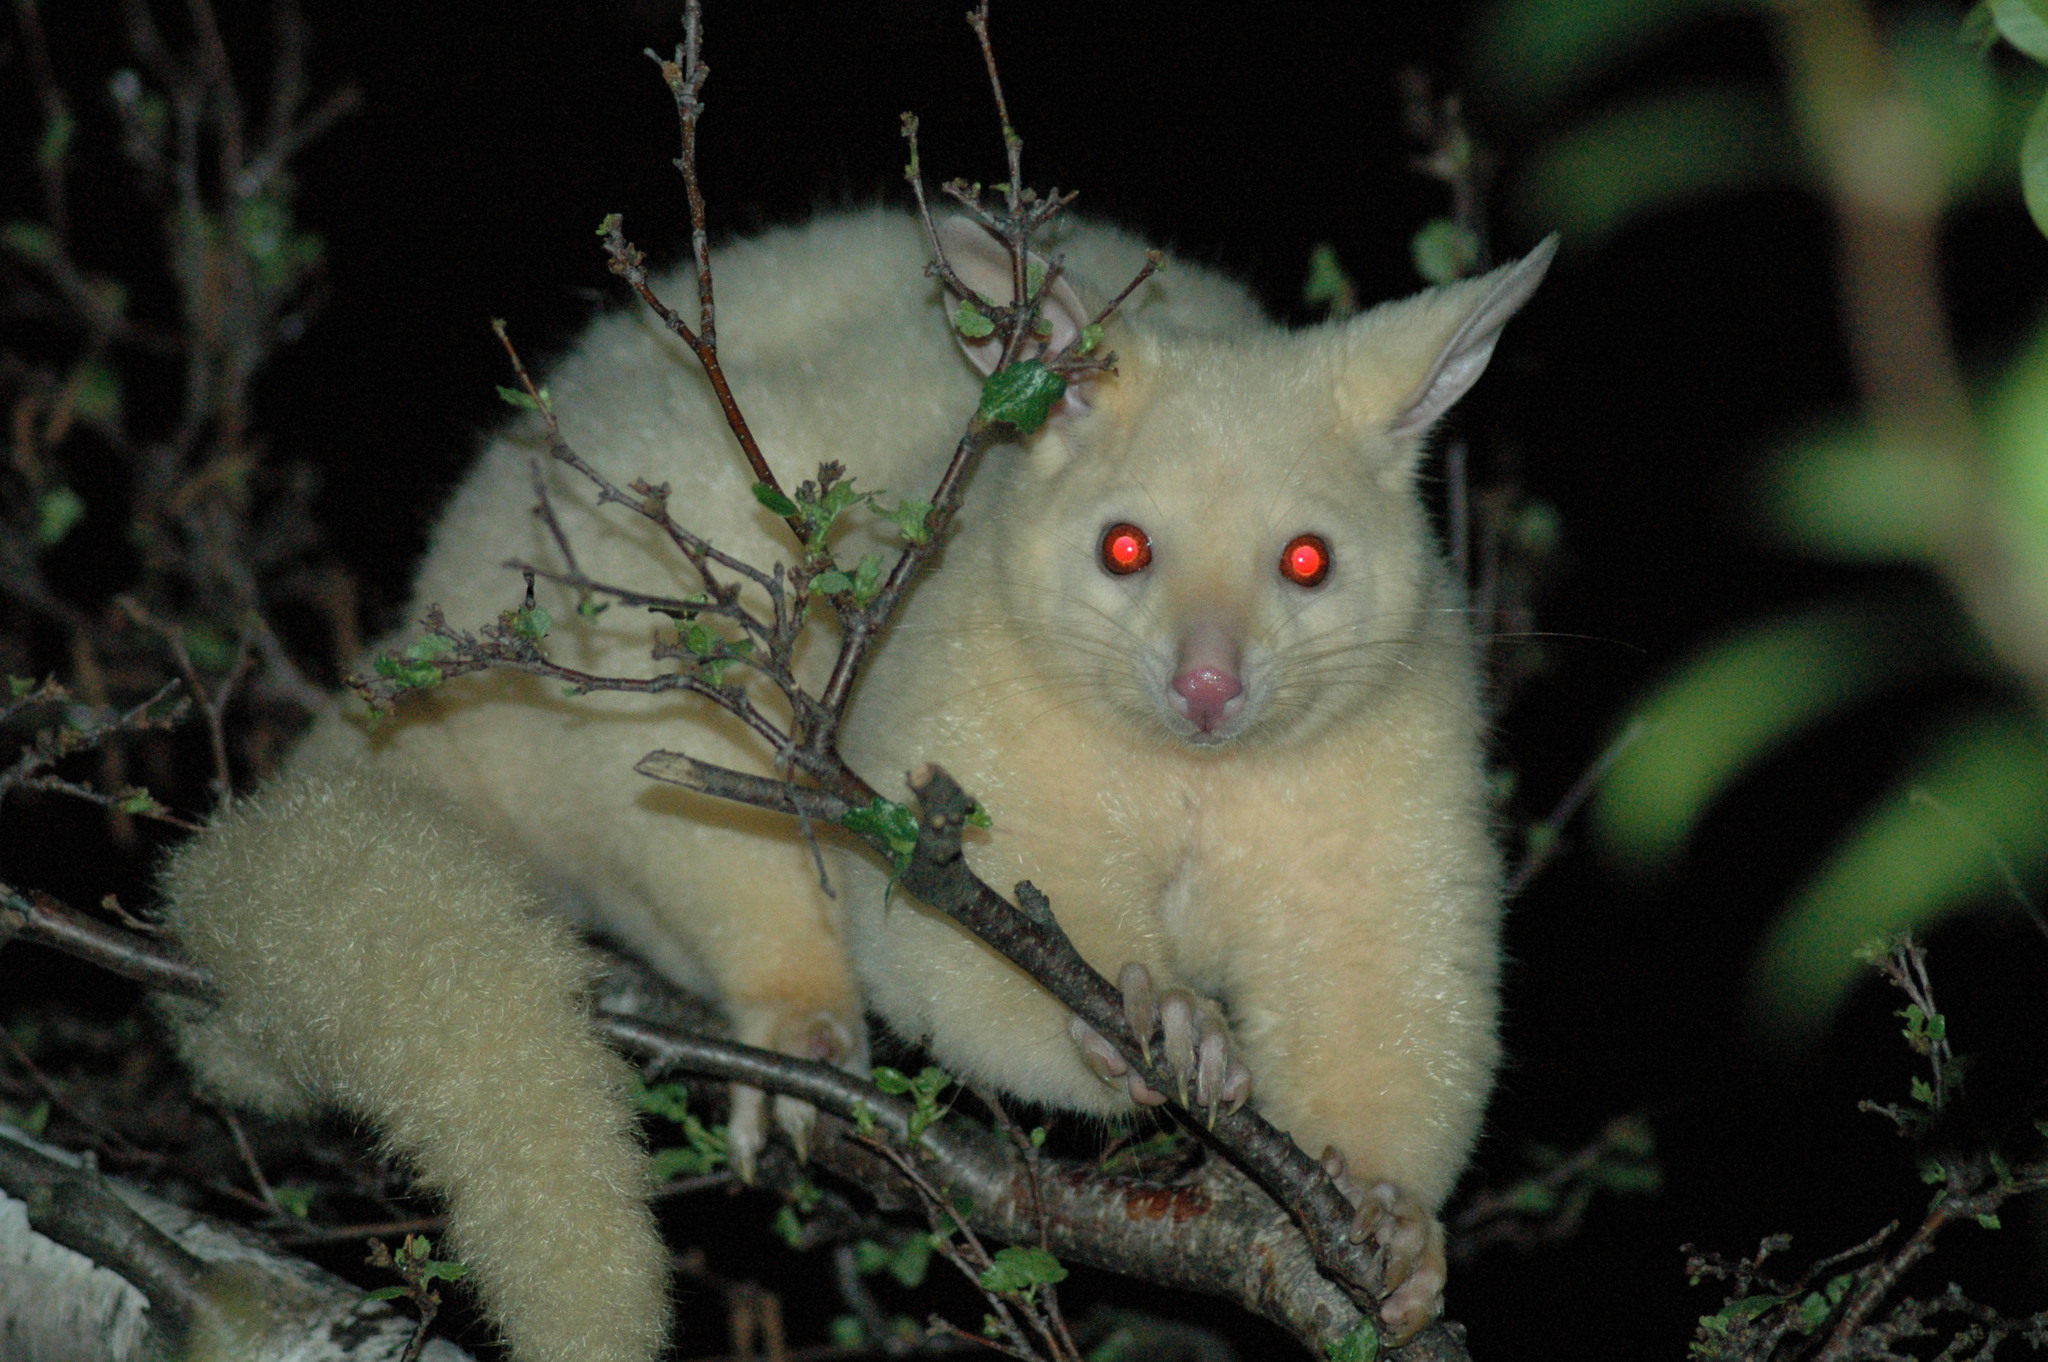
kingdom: Animalia
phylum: Chordata
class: Mammalia
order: Diprotodontia
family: Phalangeridae
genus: Trichosurus
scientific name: Trichosurus vulpecula
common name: Common brushtail
